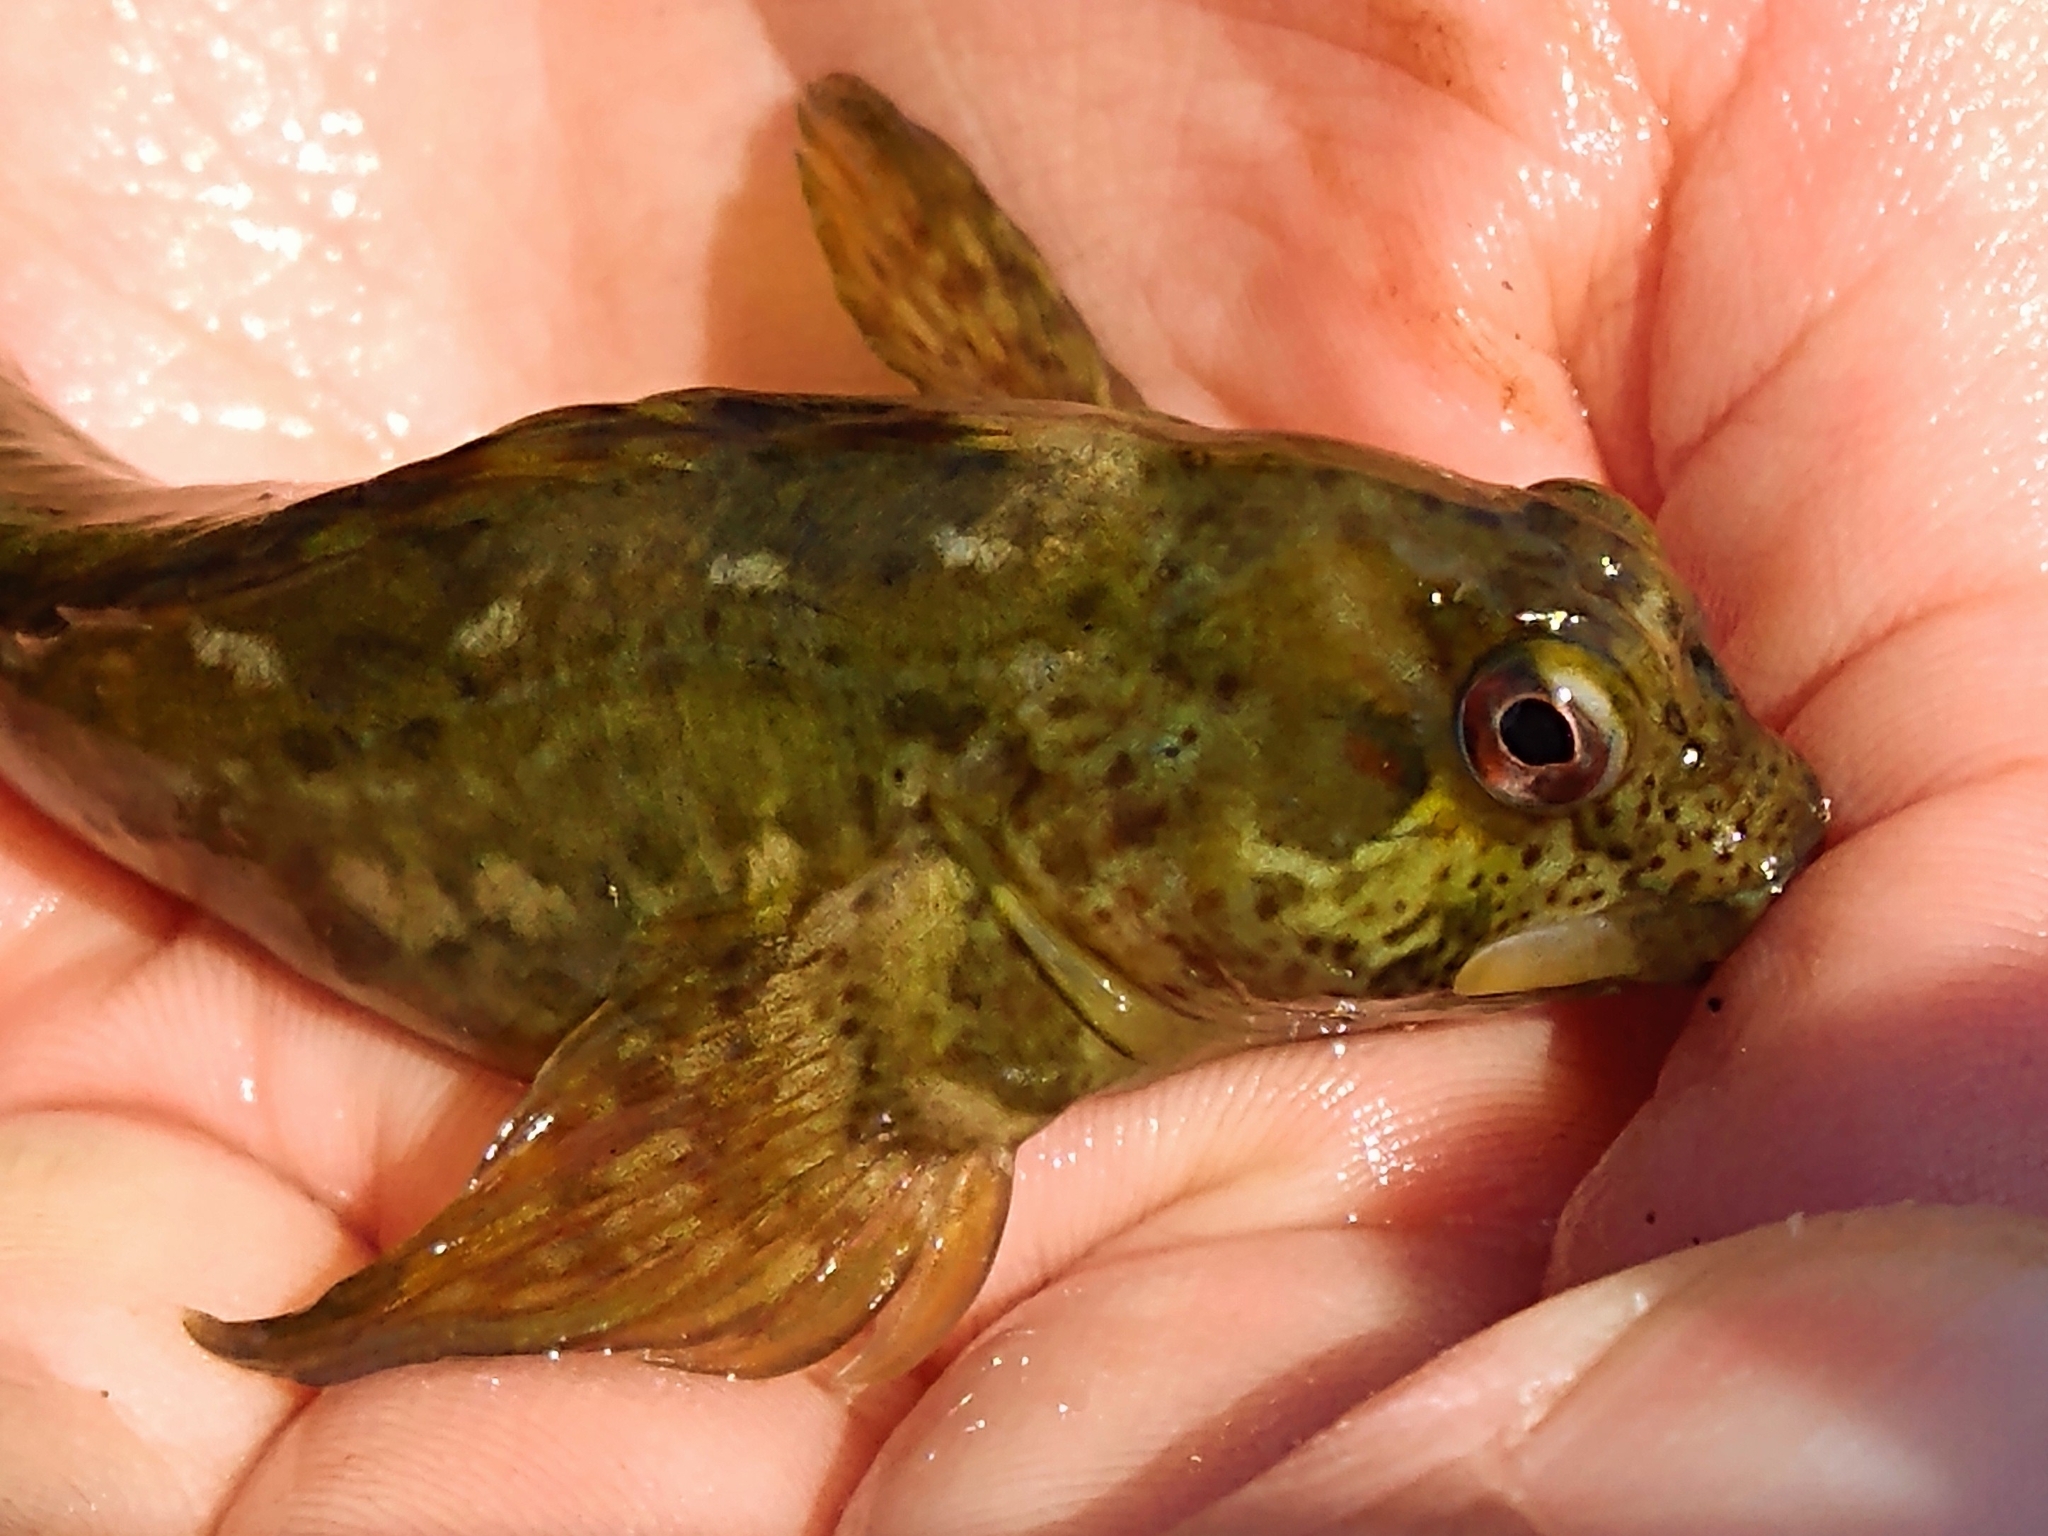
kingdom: Animalia
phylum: Chordata
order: Perciformes
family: Blenniidae
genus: Lipophrys
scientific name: Lipophrys pholis
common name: Shanny
